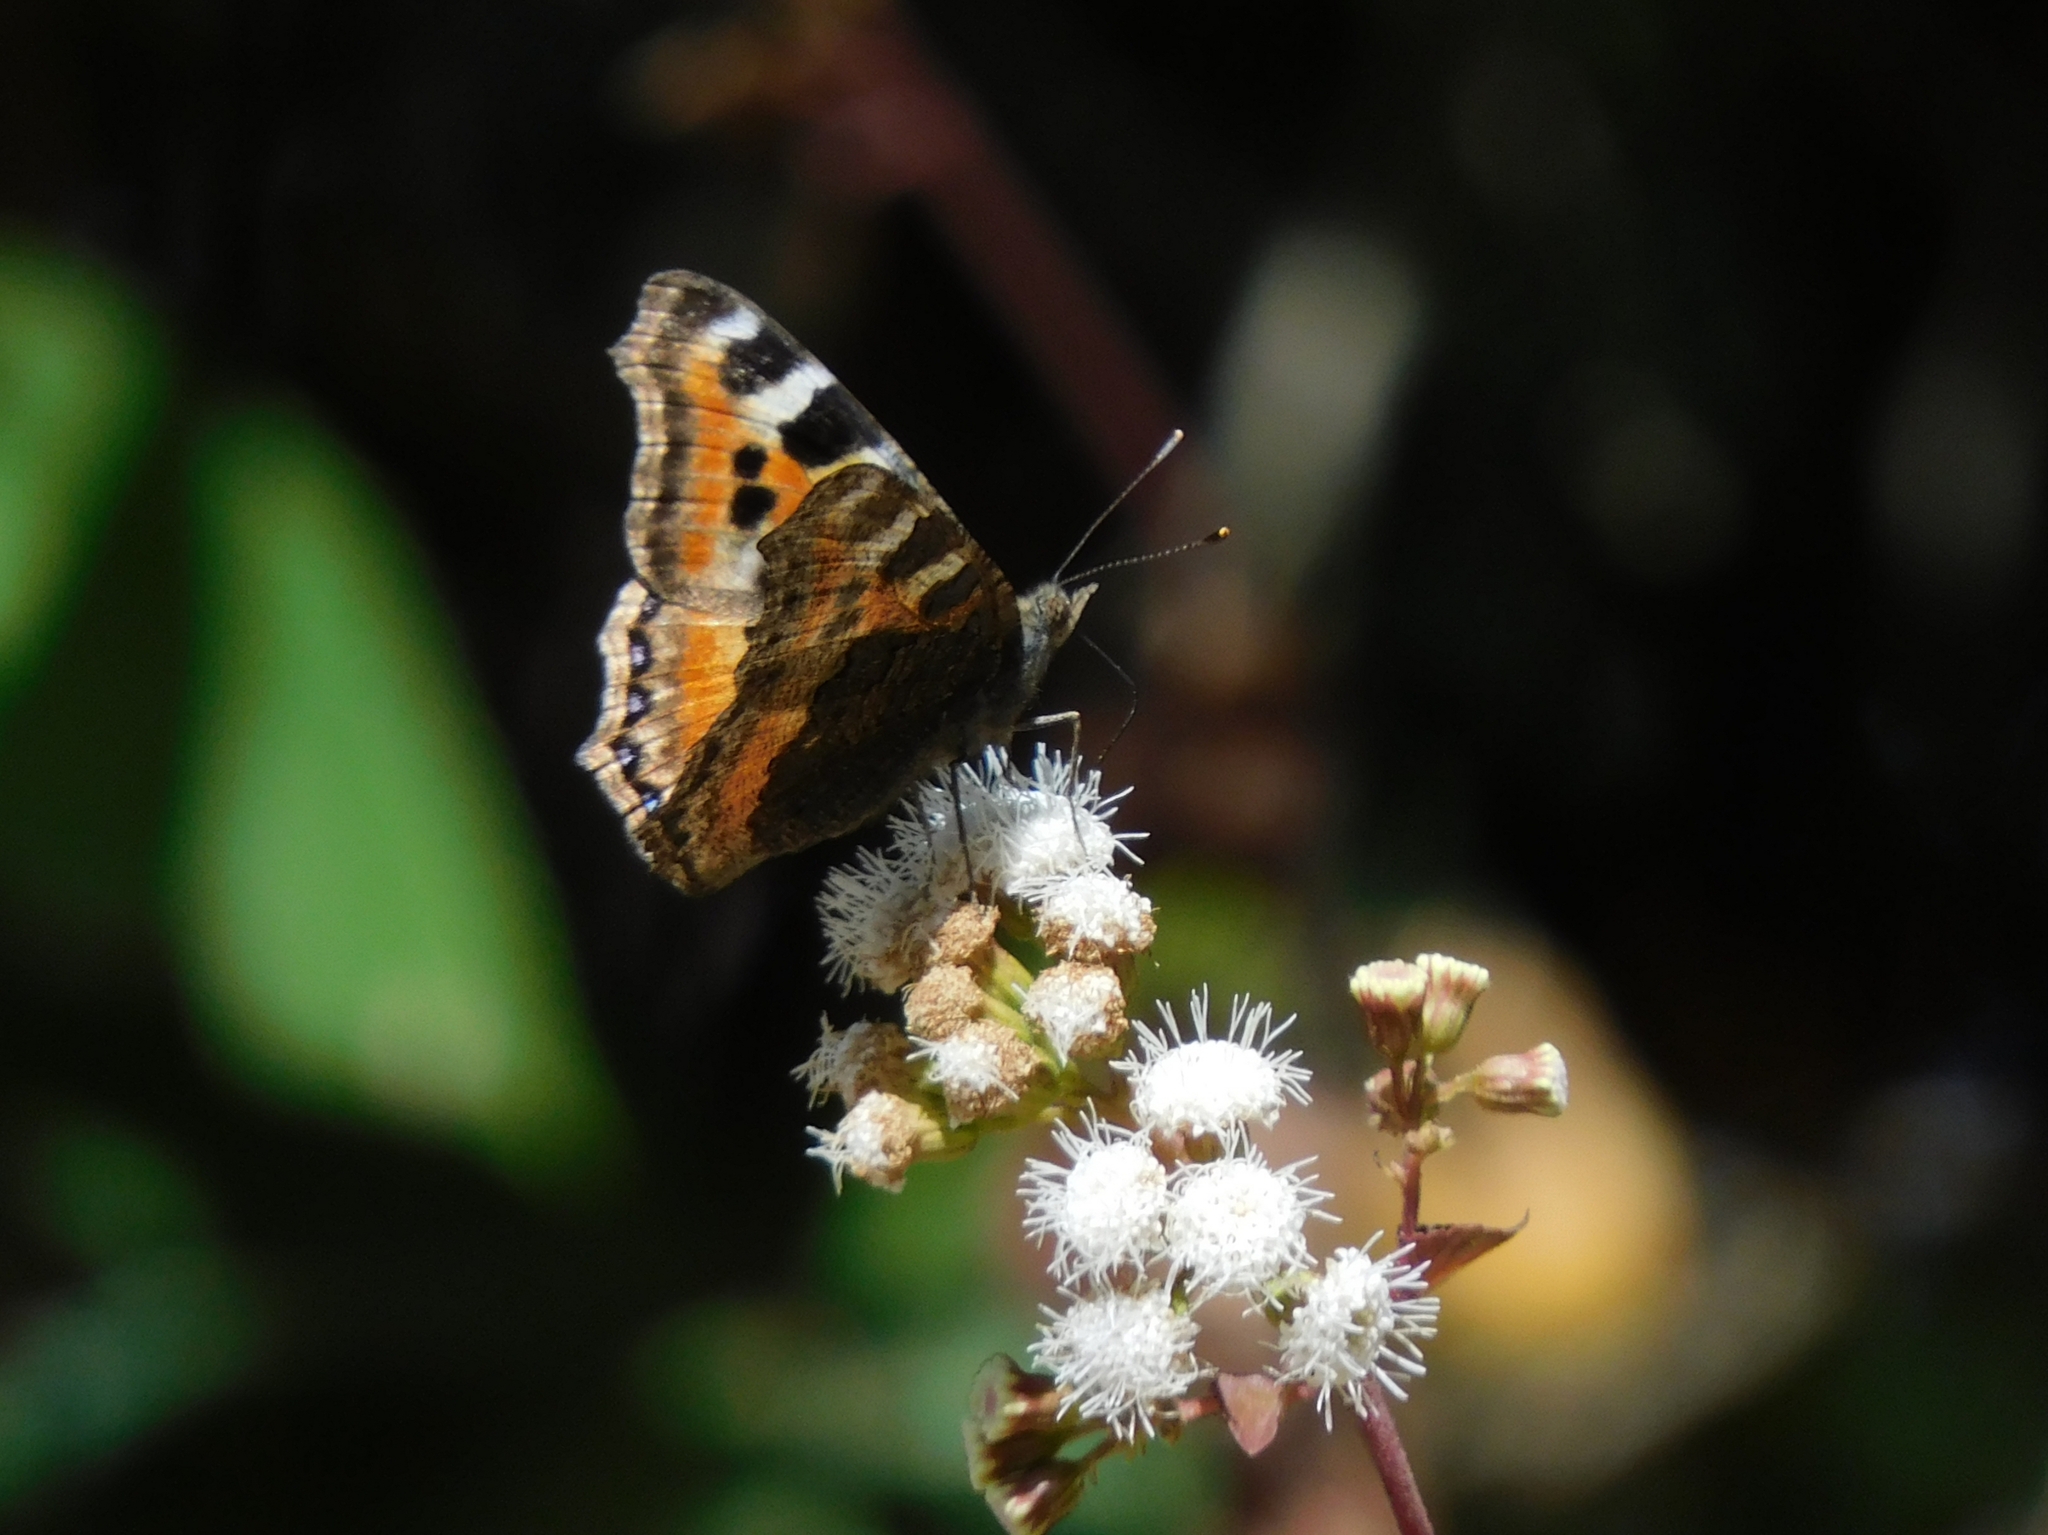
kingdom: Animalia
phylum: Arthropoda
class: Insecta
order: Lepidoptera
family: Nymphalidae
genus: Aglais
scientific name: Aglais caschmirensis
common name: Indian tortoiseshell
